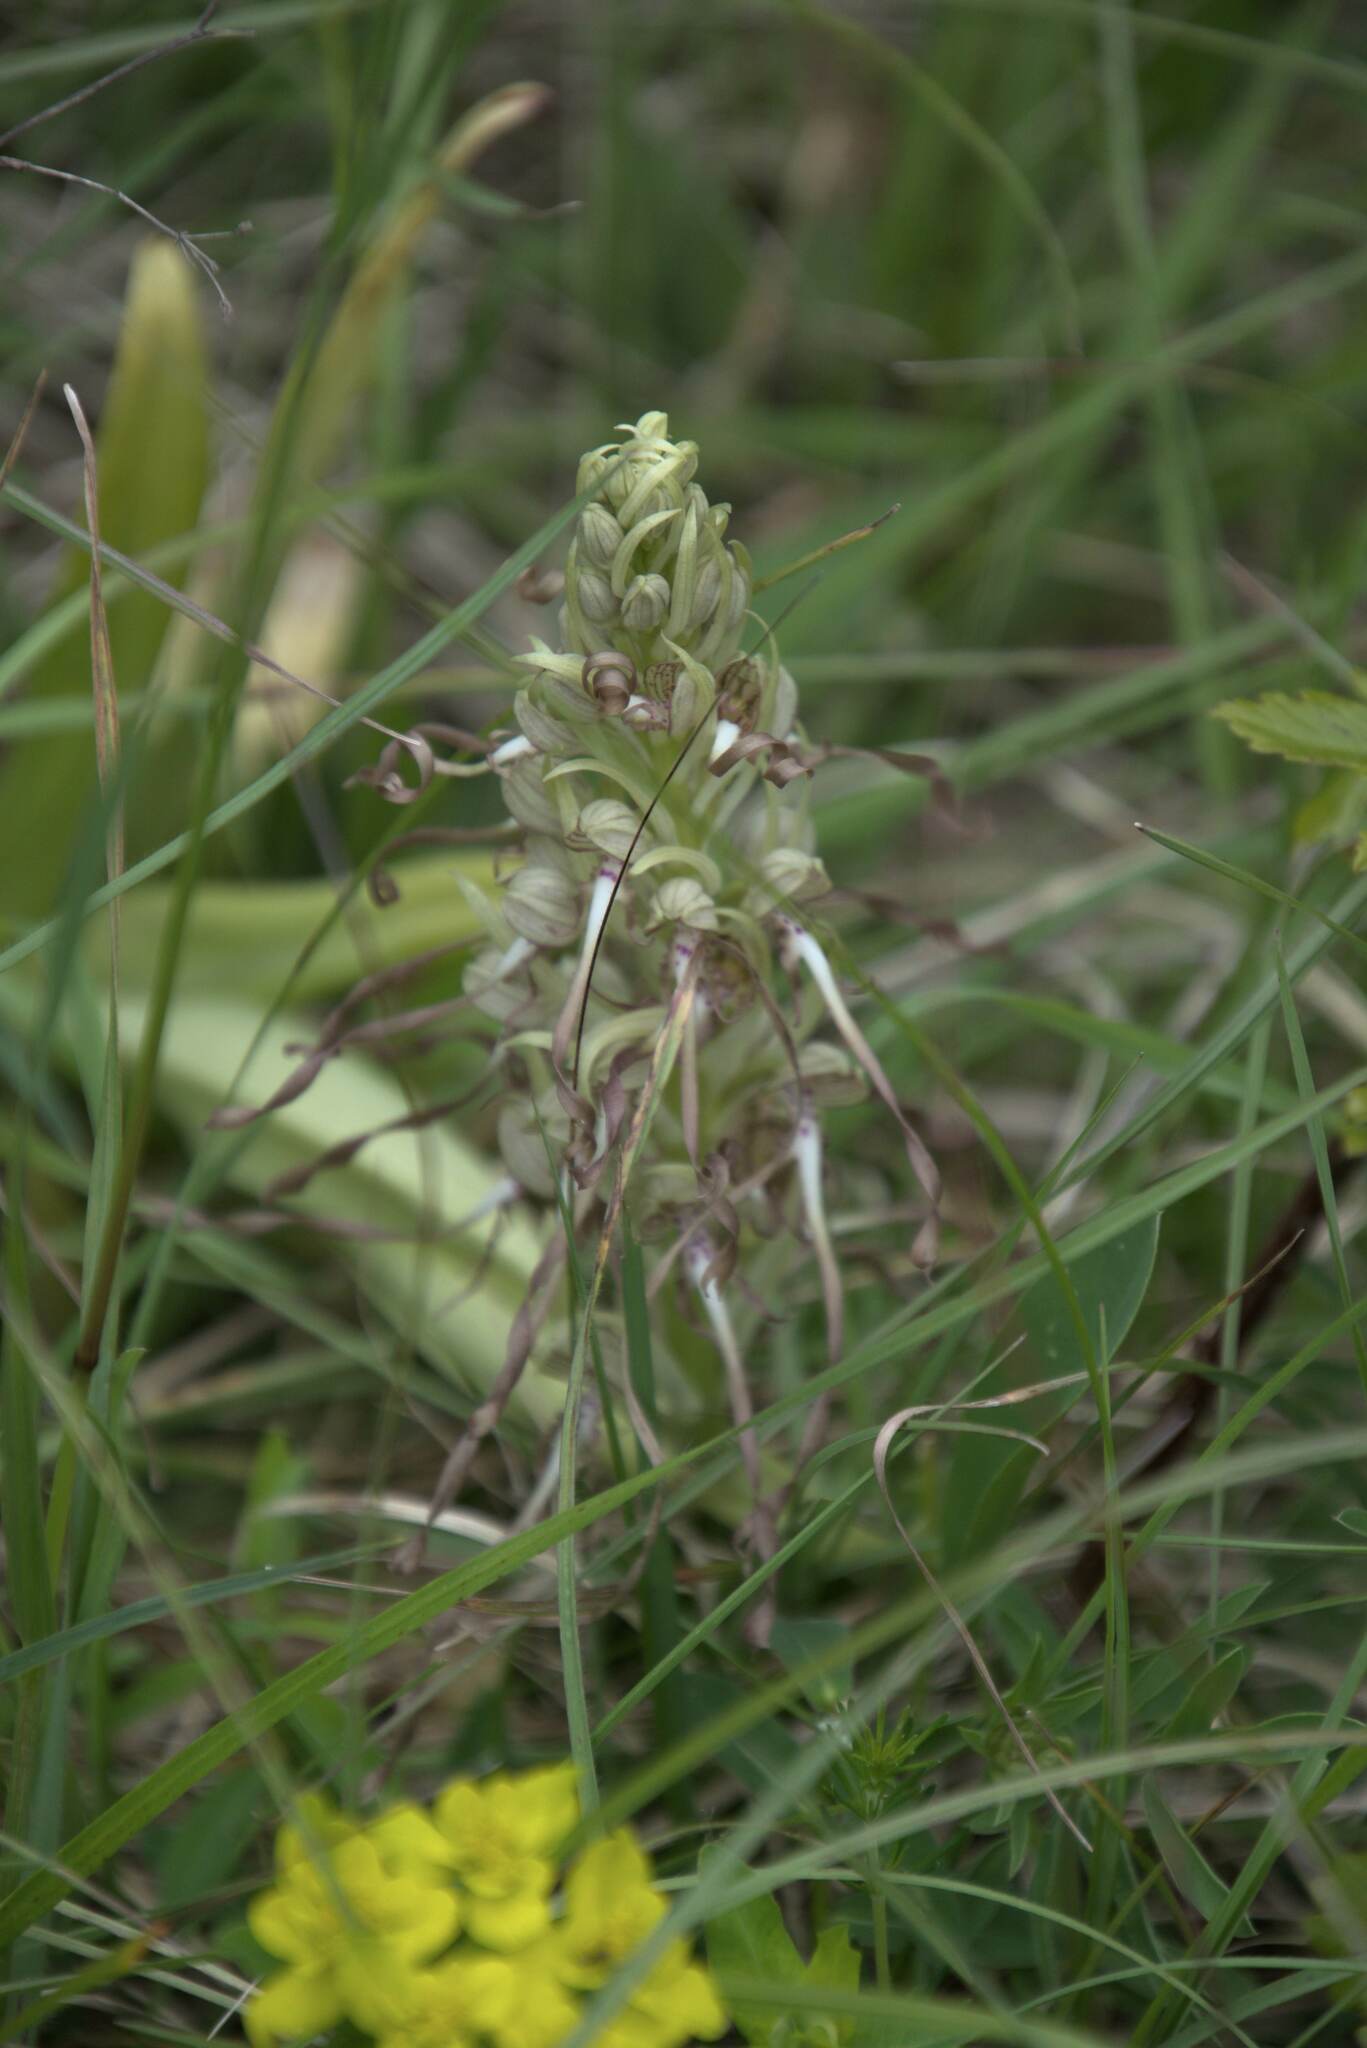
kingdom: Plantae
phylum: Tracheophyta
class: Liliopsida
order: Asparagales
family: Orchidaceae
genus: Himantoglossum
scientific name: Himantoglossum hircinum
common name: Lizard orchid
